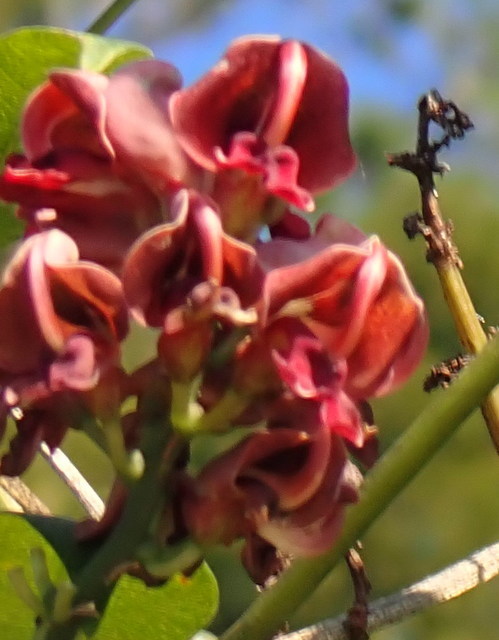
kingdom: Plantae
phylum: Tracheophyta
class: Magnoliopsida
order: Fabales
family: Fabaceae
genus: Apios
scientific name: Apios americana
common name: American potato-bean
